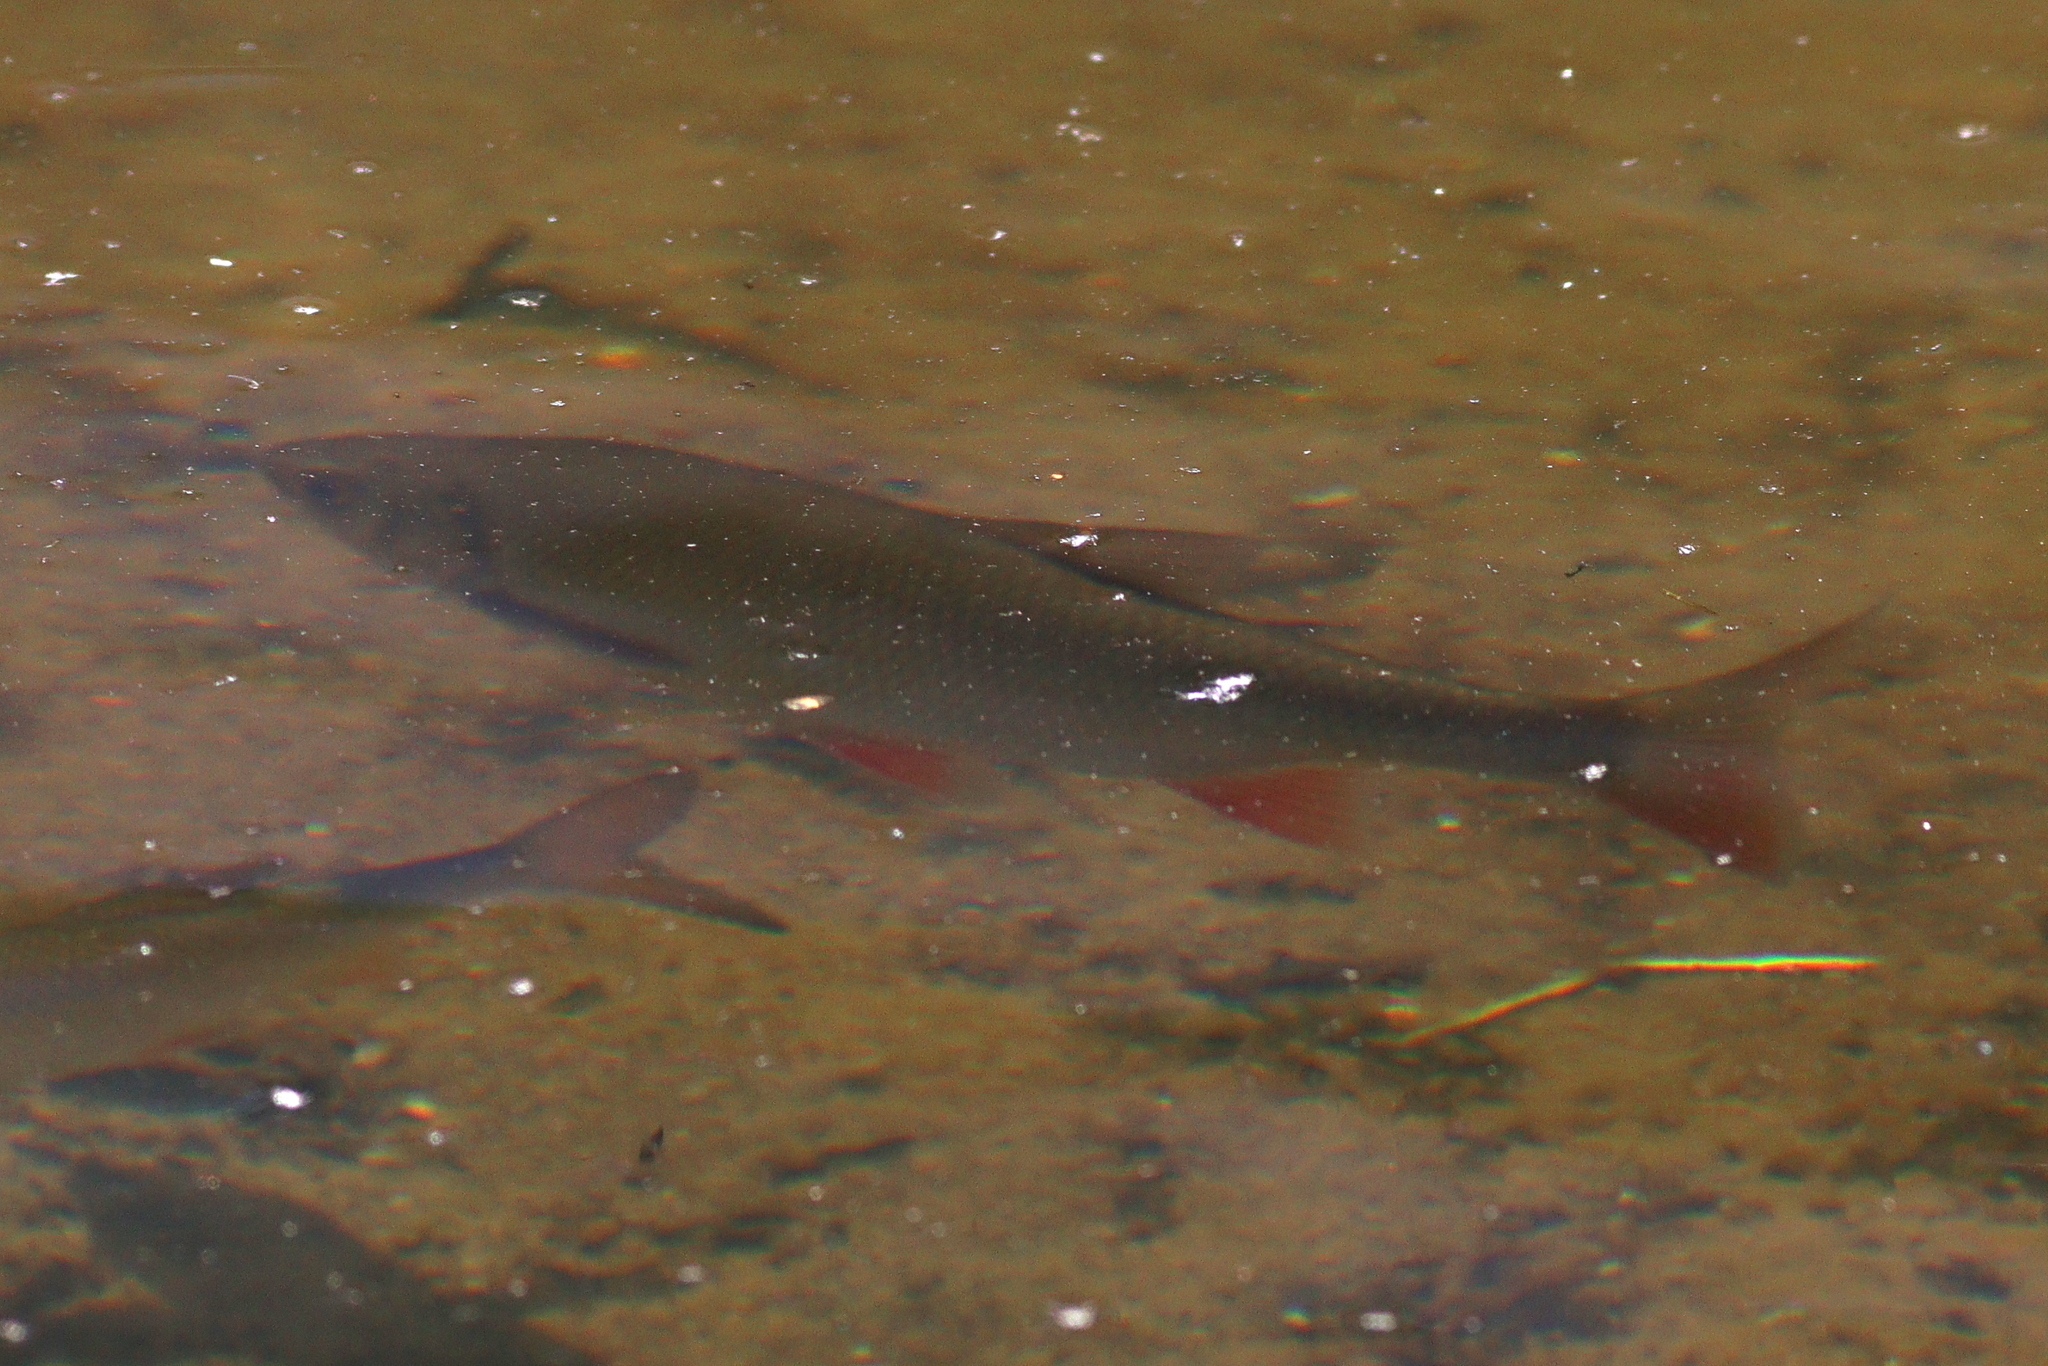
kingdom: Animalia
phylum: Chordata
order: Cypriniformes
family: Cyprinidae
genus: Scardinius
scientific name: Scardinius erythrophthalmus
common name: Rudd
